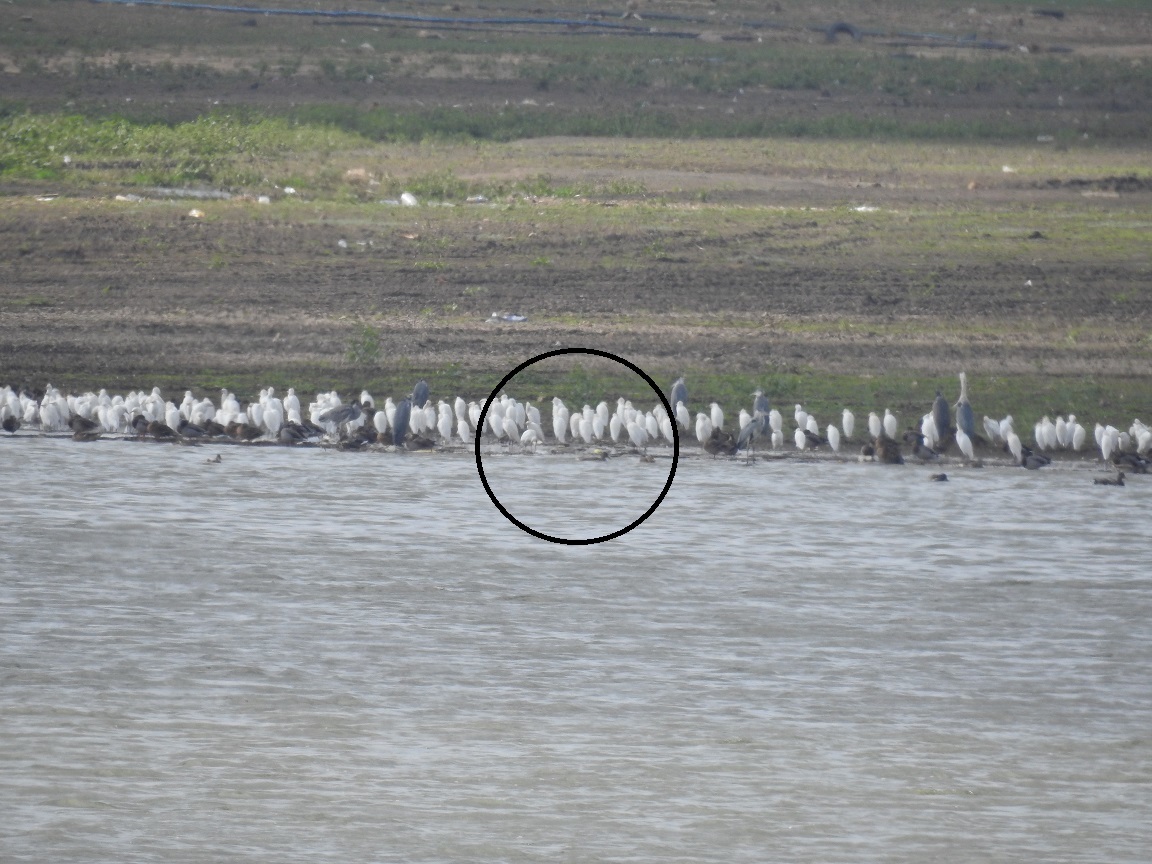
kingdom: Animalia
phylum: Chordata
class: Aves
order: Pelecaniformes
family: Ardeidae
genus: Bubulcus
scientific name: Bubulcus ibis
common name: Cattle egret
